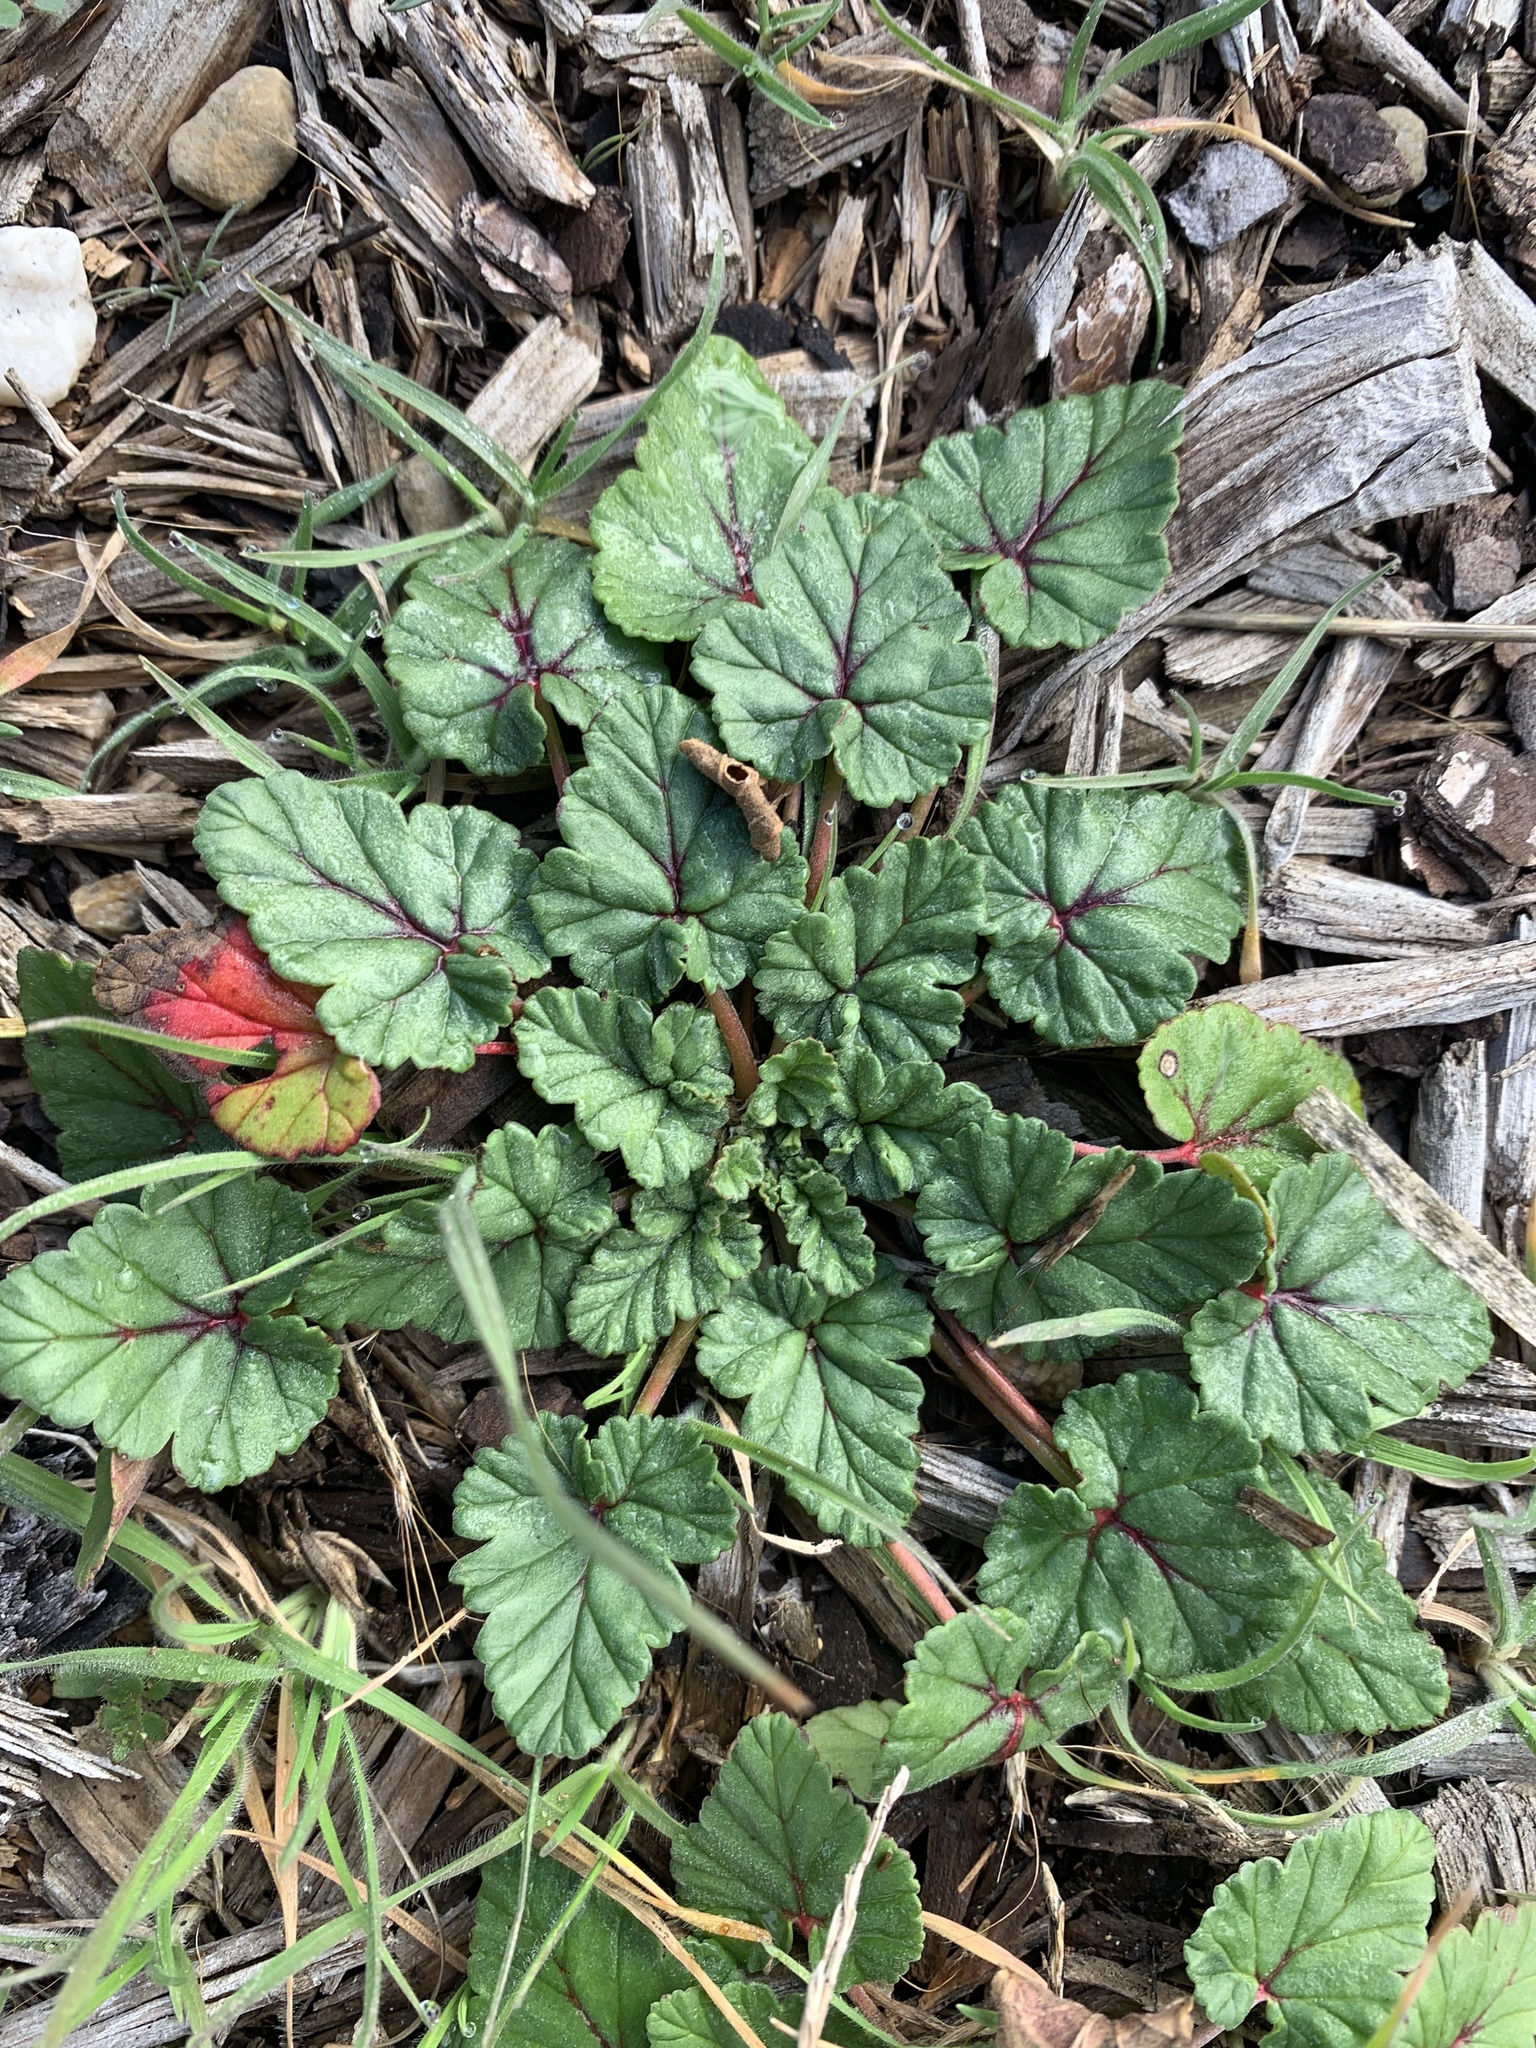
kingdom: Plantae
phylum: Tracheophyta
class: Magnoliopsida
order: Geraniales
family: Geraniaceae
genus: Erodium
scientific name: Erodium texanum
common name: Texas stork's-bill
